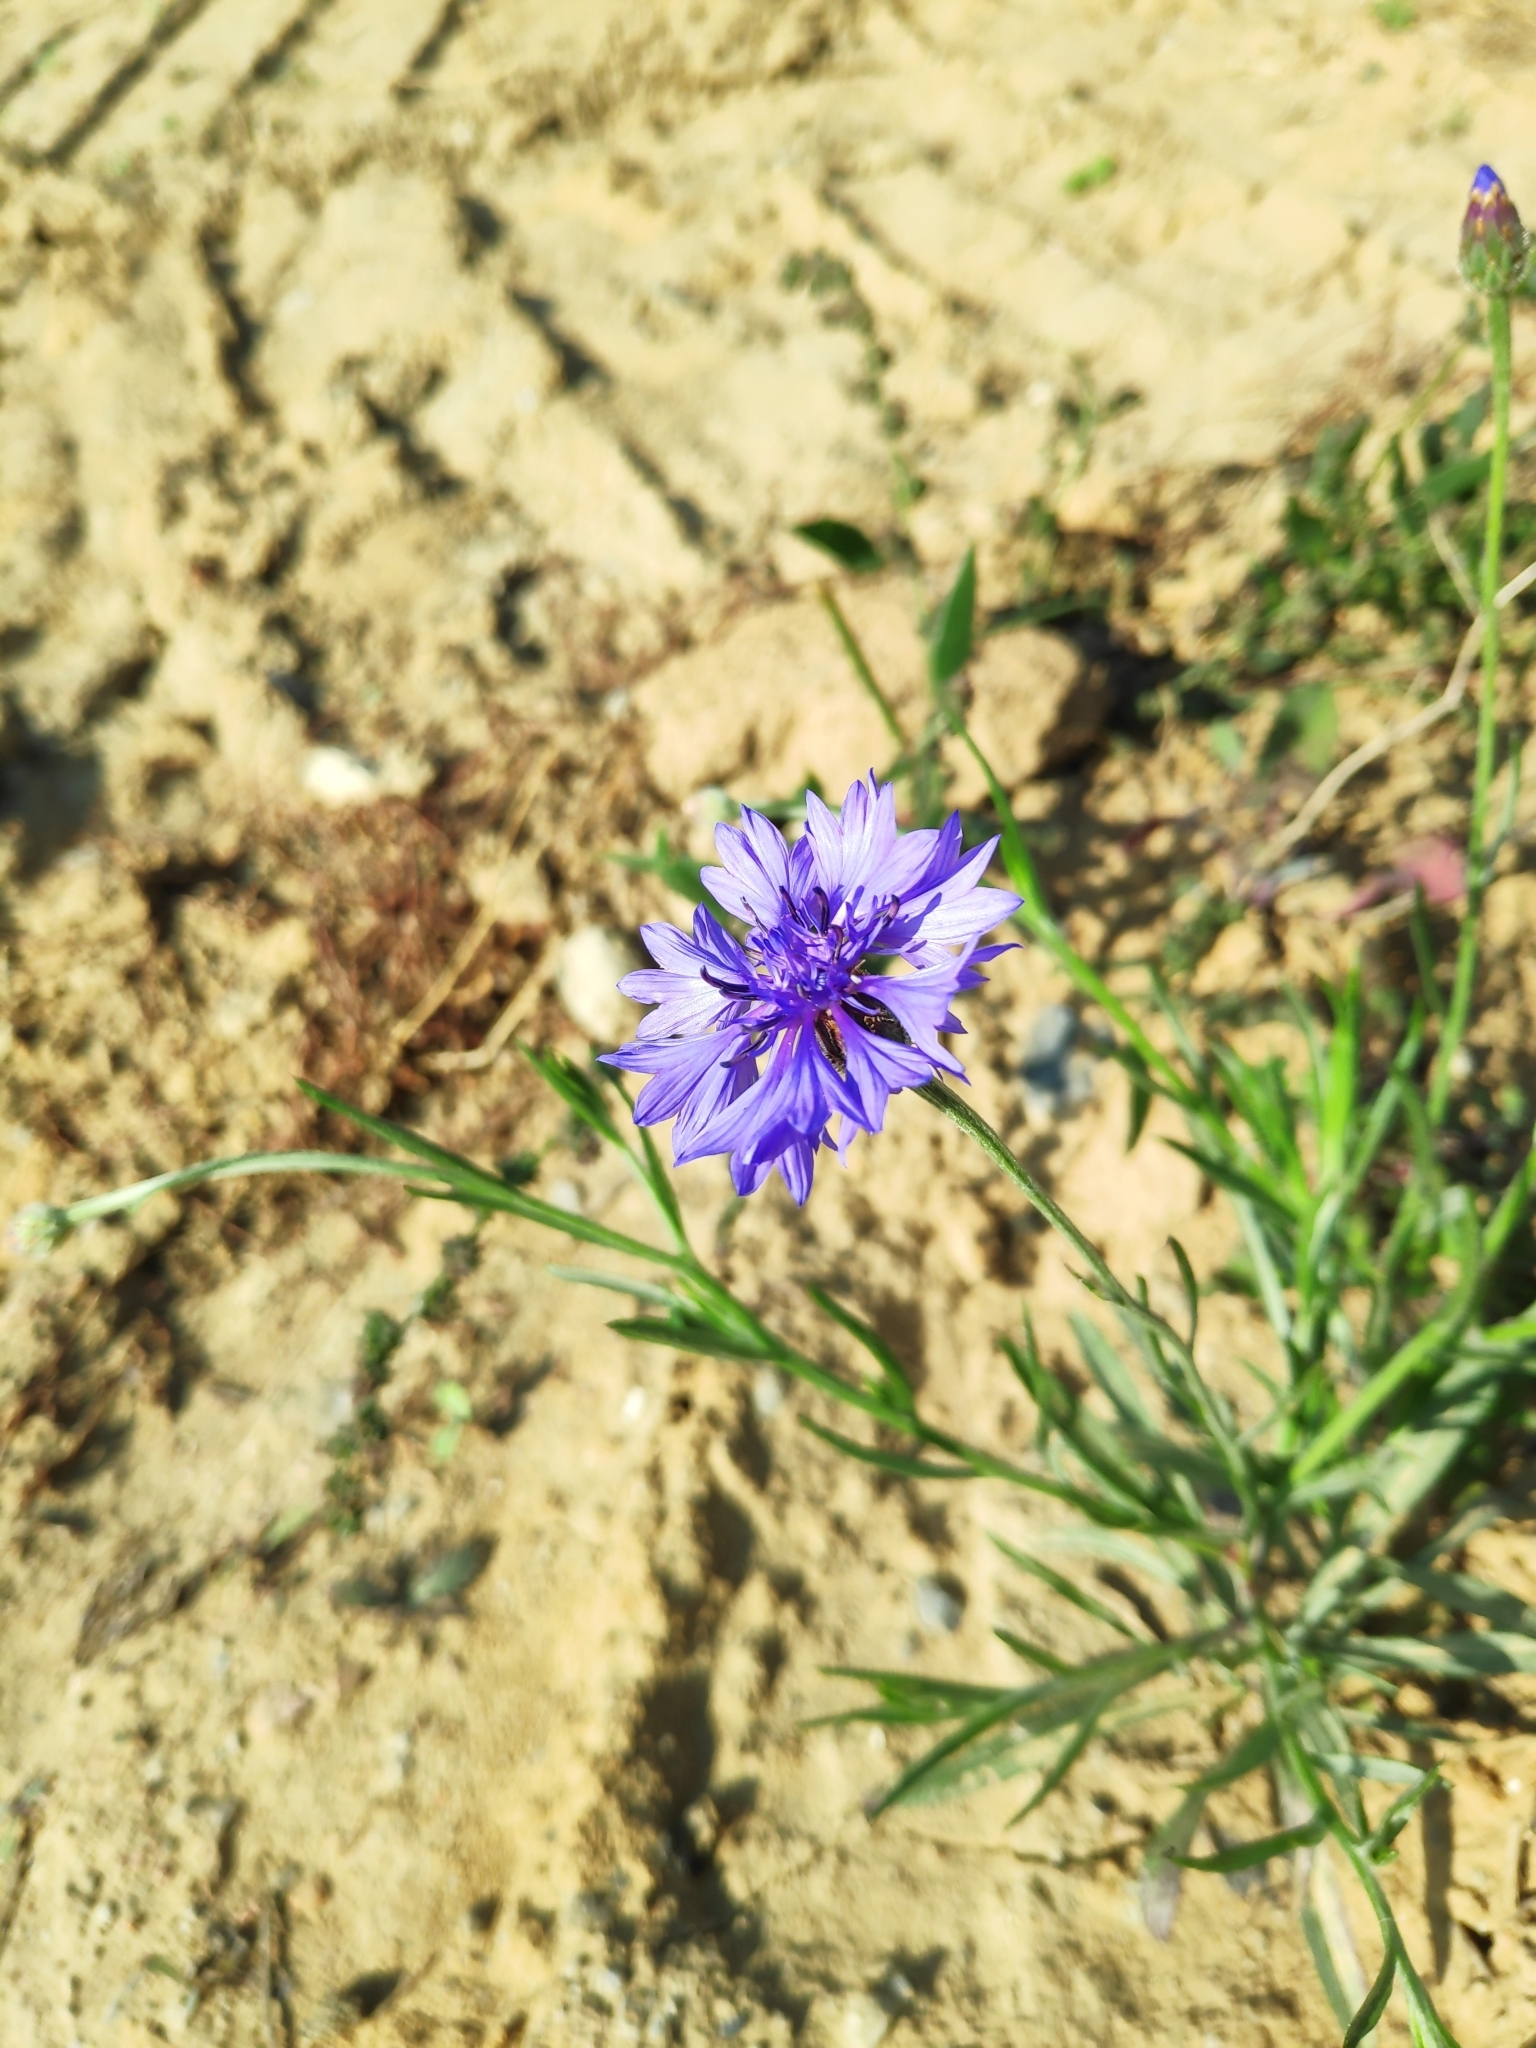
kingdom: Plantae
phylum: Tracheophyta
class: Magnoliopsida
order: Asterales
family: Asteraceae
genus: Centaurea
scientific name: Centaurea cyanus
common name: Cornflower
